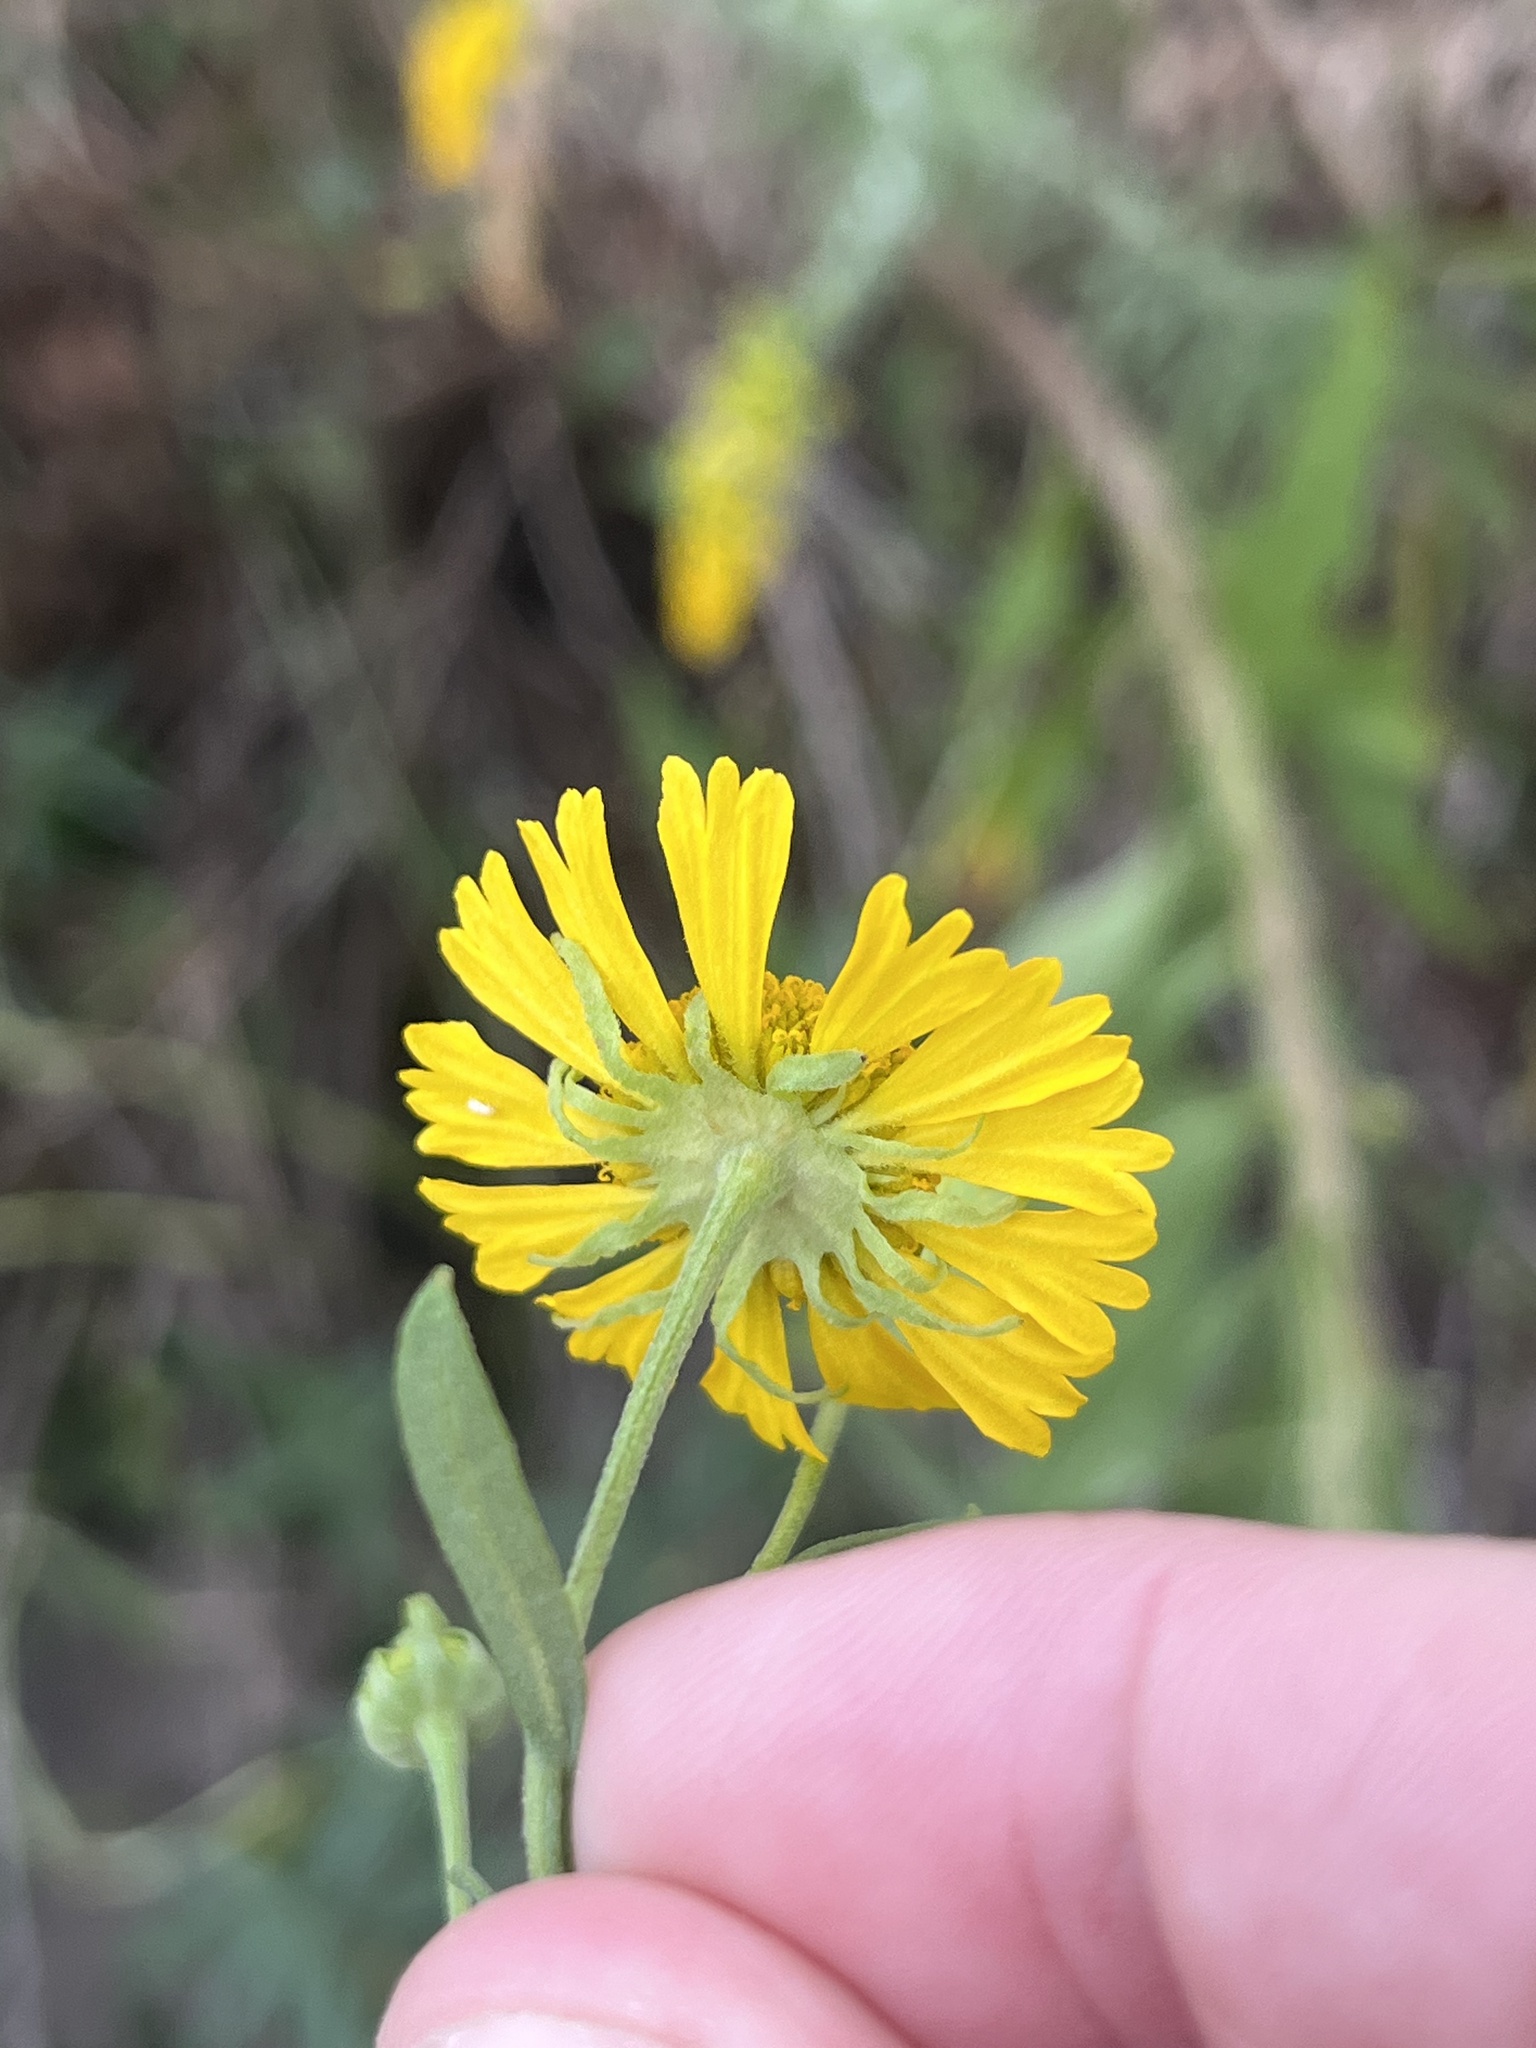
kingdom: Plantae
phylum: Tracheophyta
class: Magnoliopsida
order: Asterales
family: Asteraceae
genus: Helenium
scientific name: Helenium autumnale
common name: Sneezeweed
